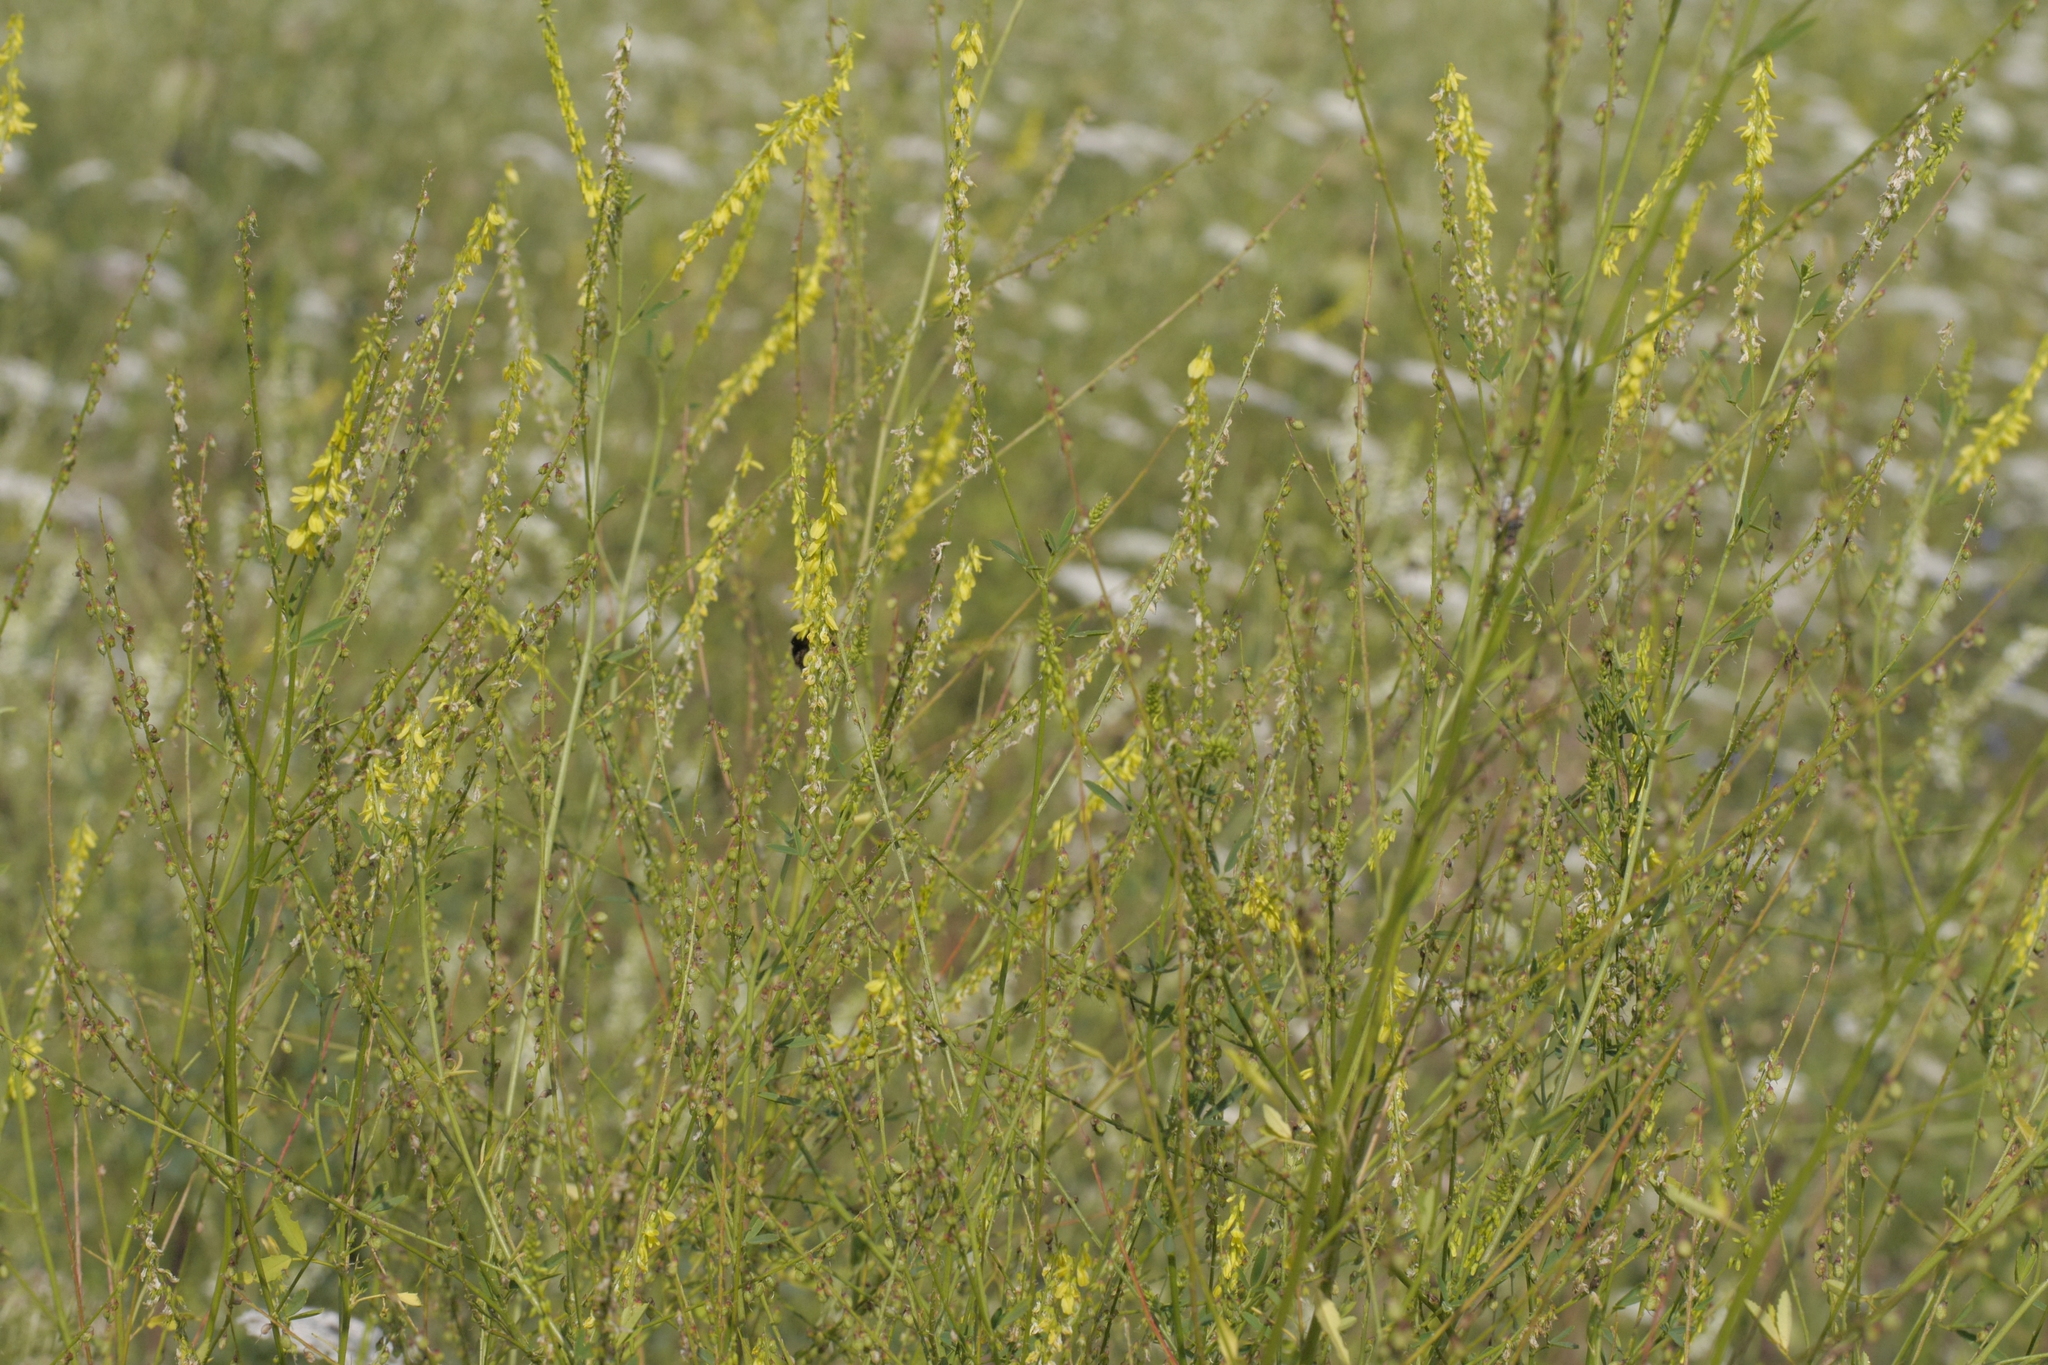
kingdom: Plantae
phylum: Tracheophyta
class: Magnoliopsida
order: Fabales
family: Fabaceae
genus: Melilotus
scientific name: Melilotus officinalis
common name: Sweetclover
